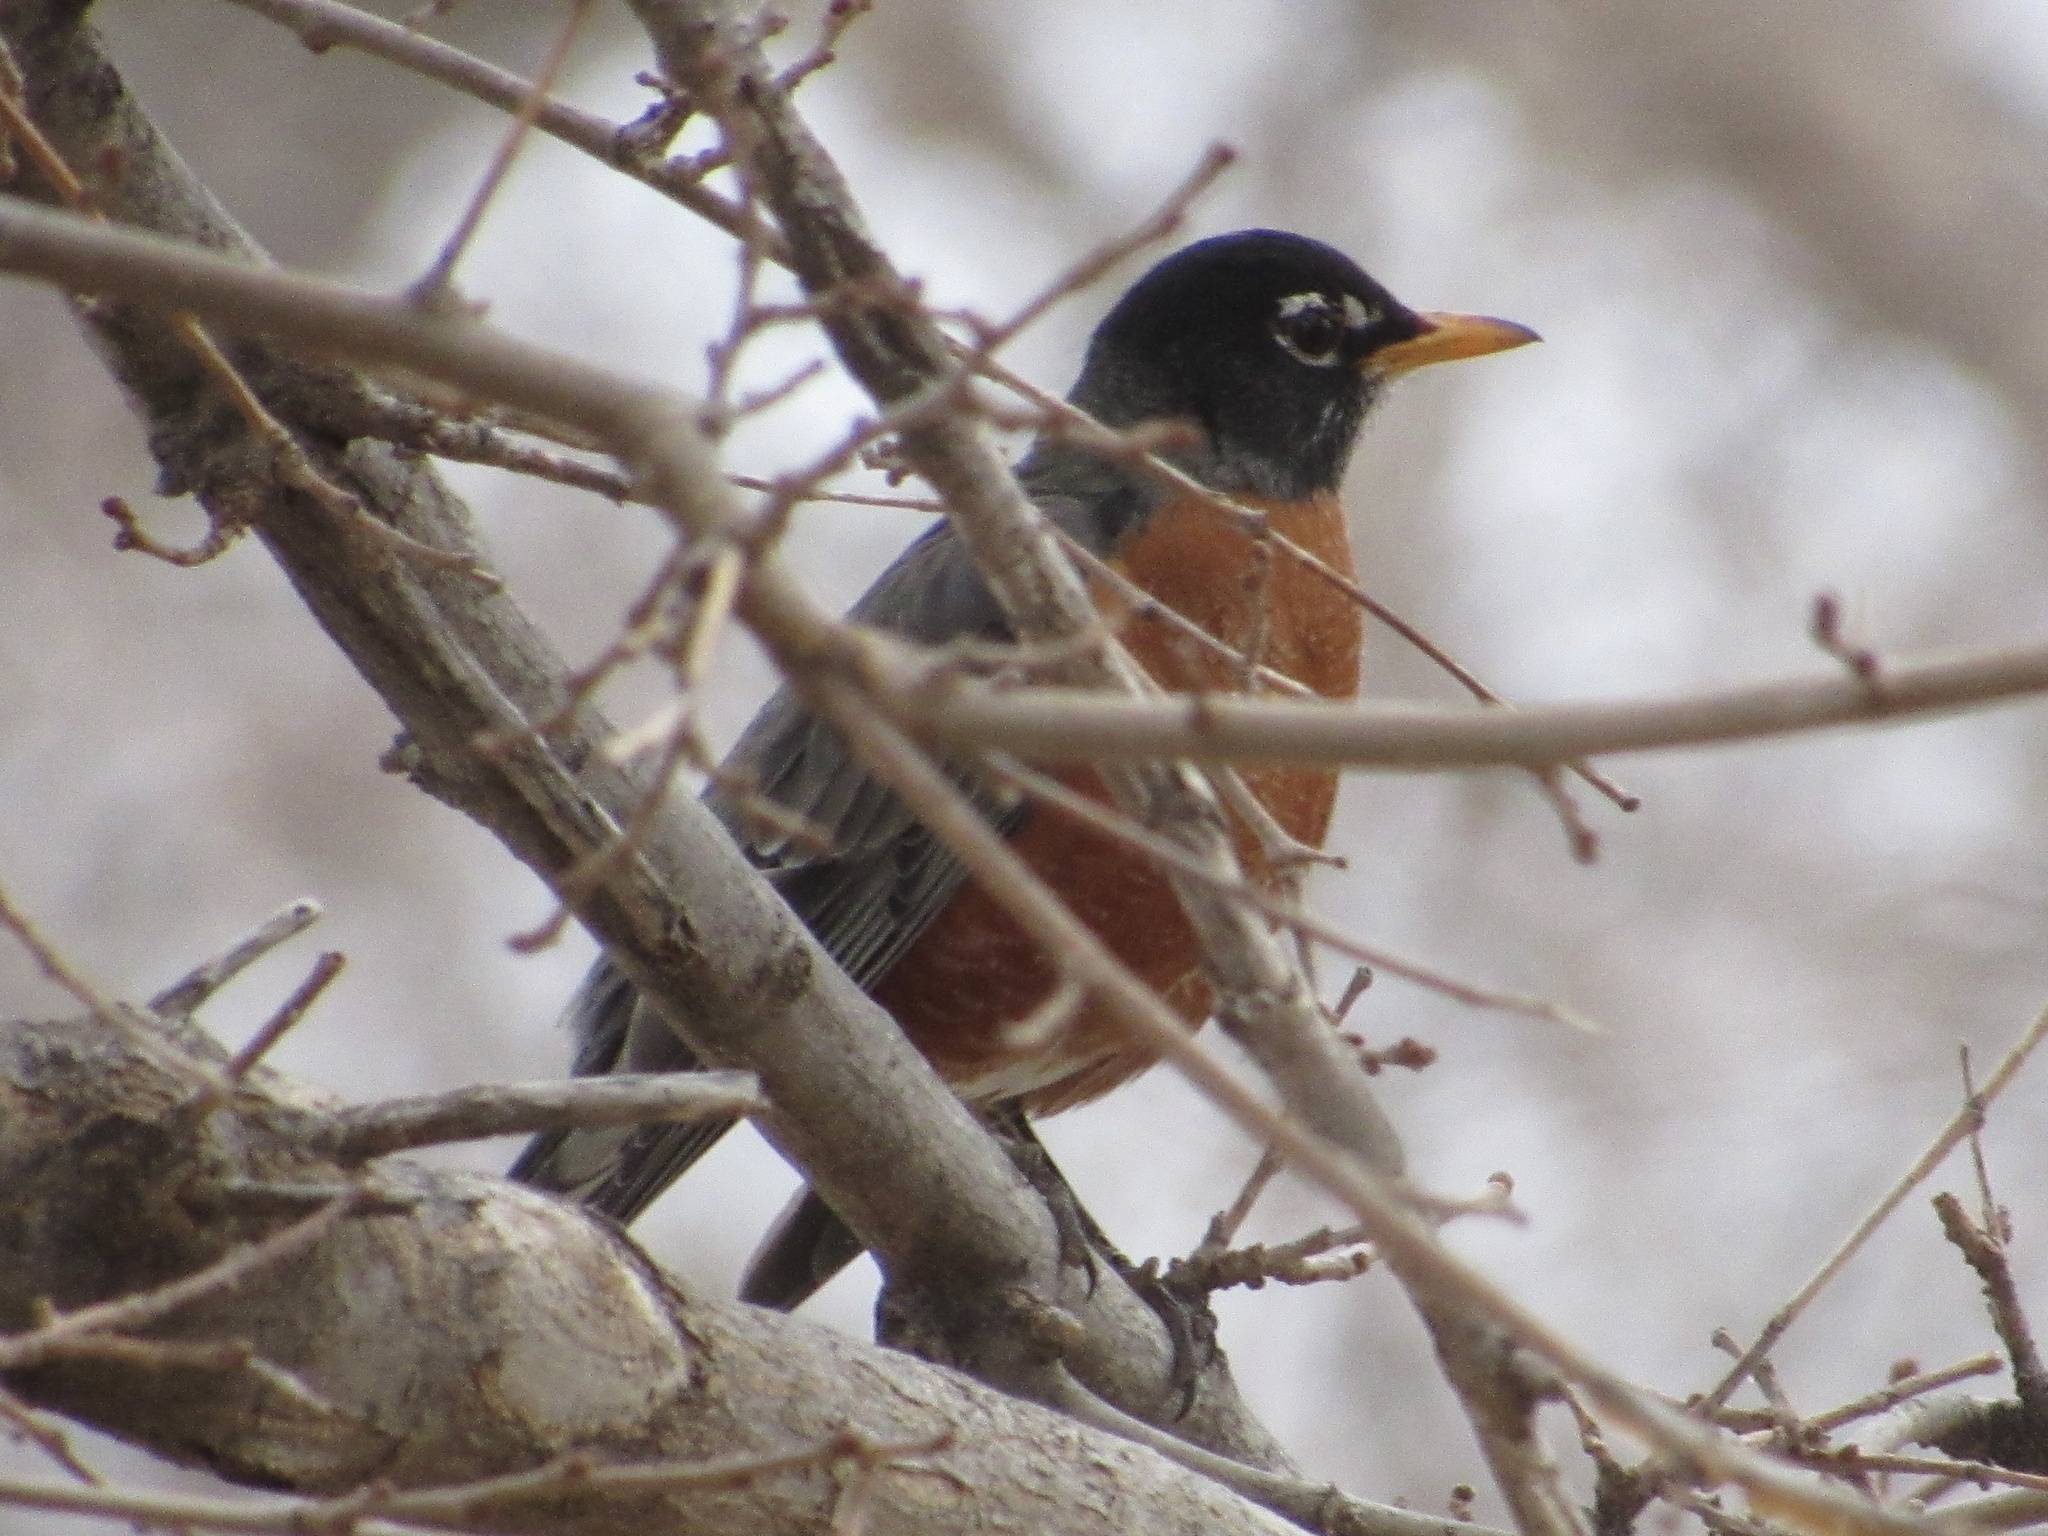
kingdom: Animalia
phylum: Chordata
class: Aves
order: Passeriformes
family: Turdidae
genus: Turdus
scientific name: Turdus migratorius
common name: American robin
